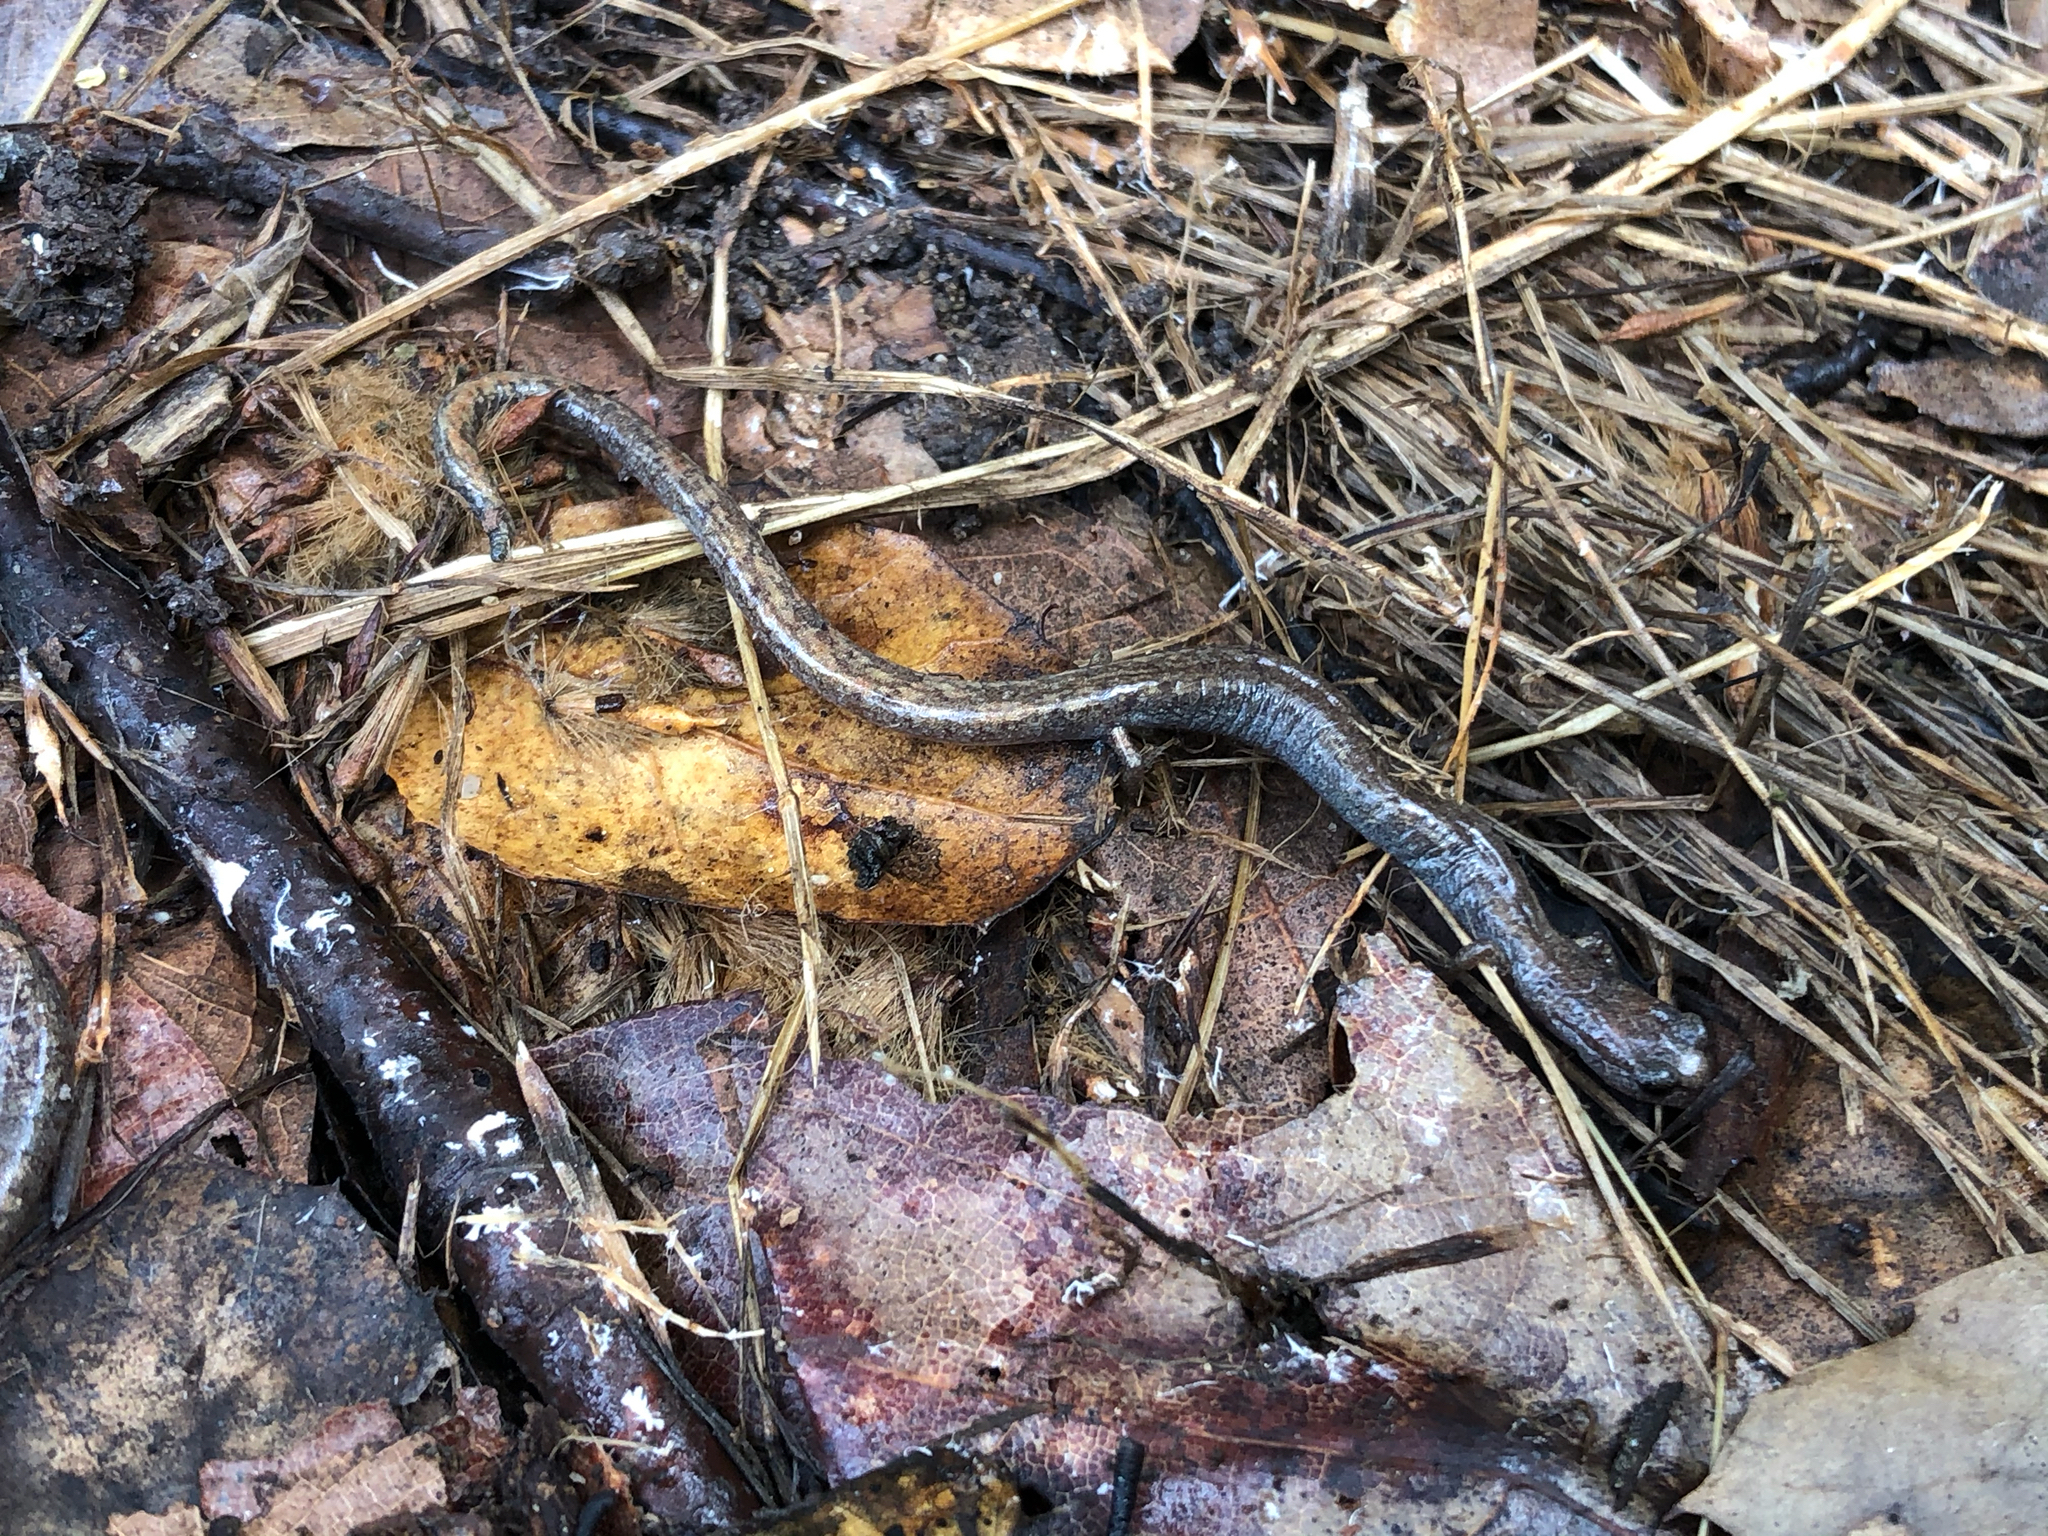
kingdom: Animalia
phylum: Chordata
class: Amphibia
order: Caudata
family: Plethodontidae
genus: Batrachoseps
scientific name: Batrachoseps major
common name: Garden slender salamander
